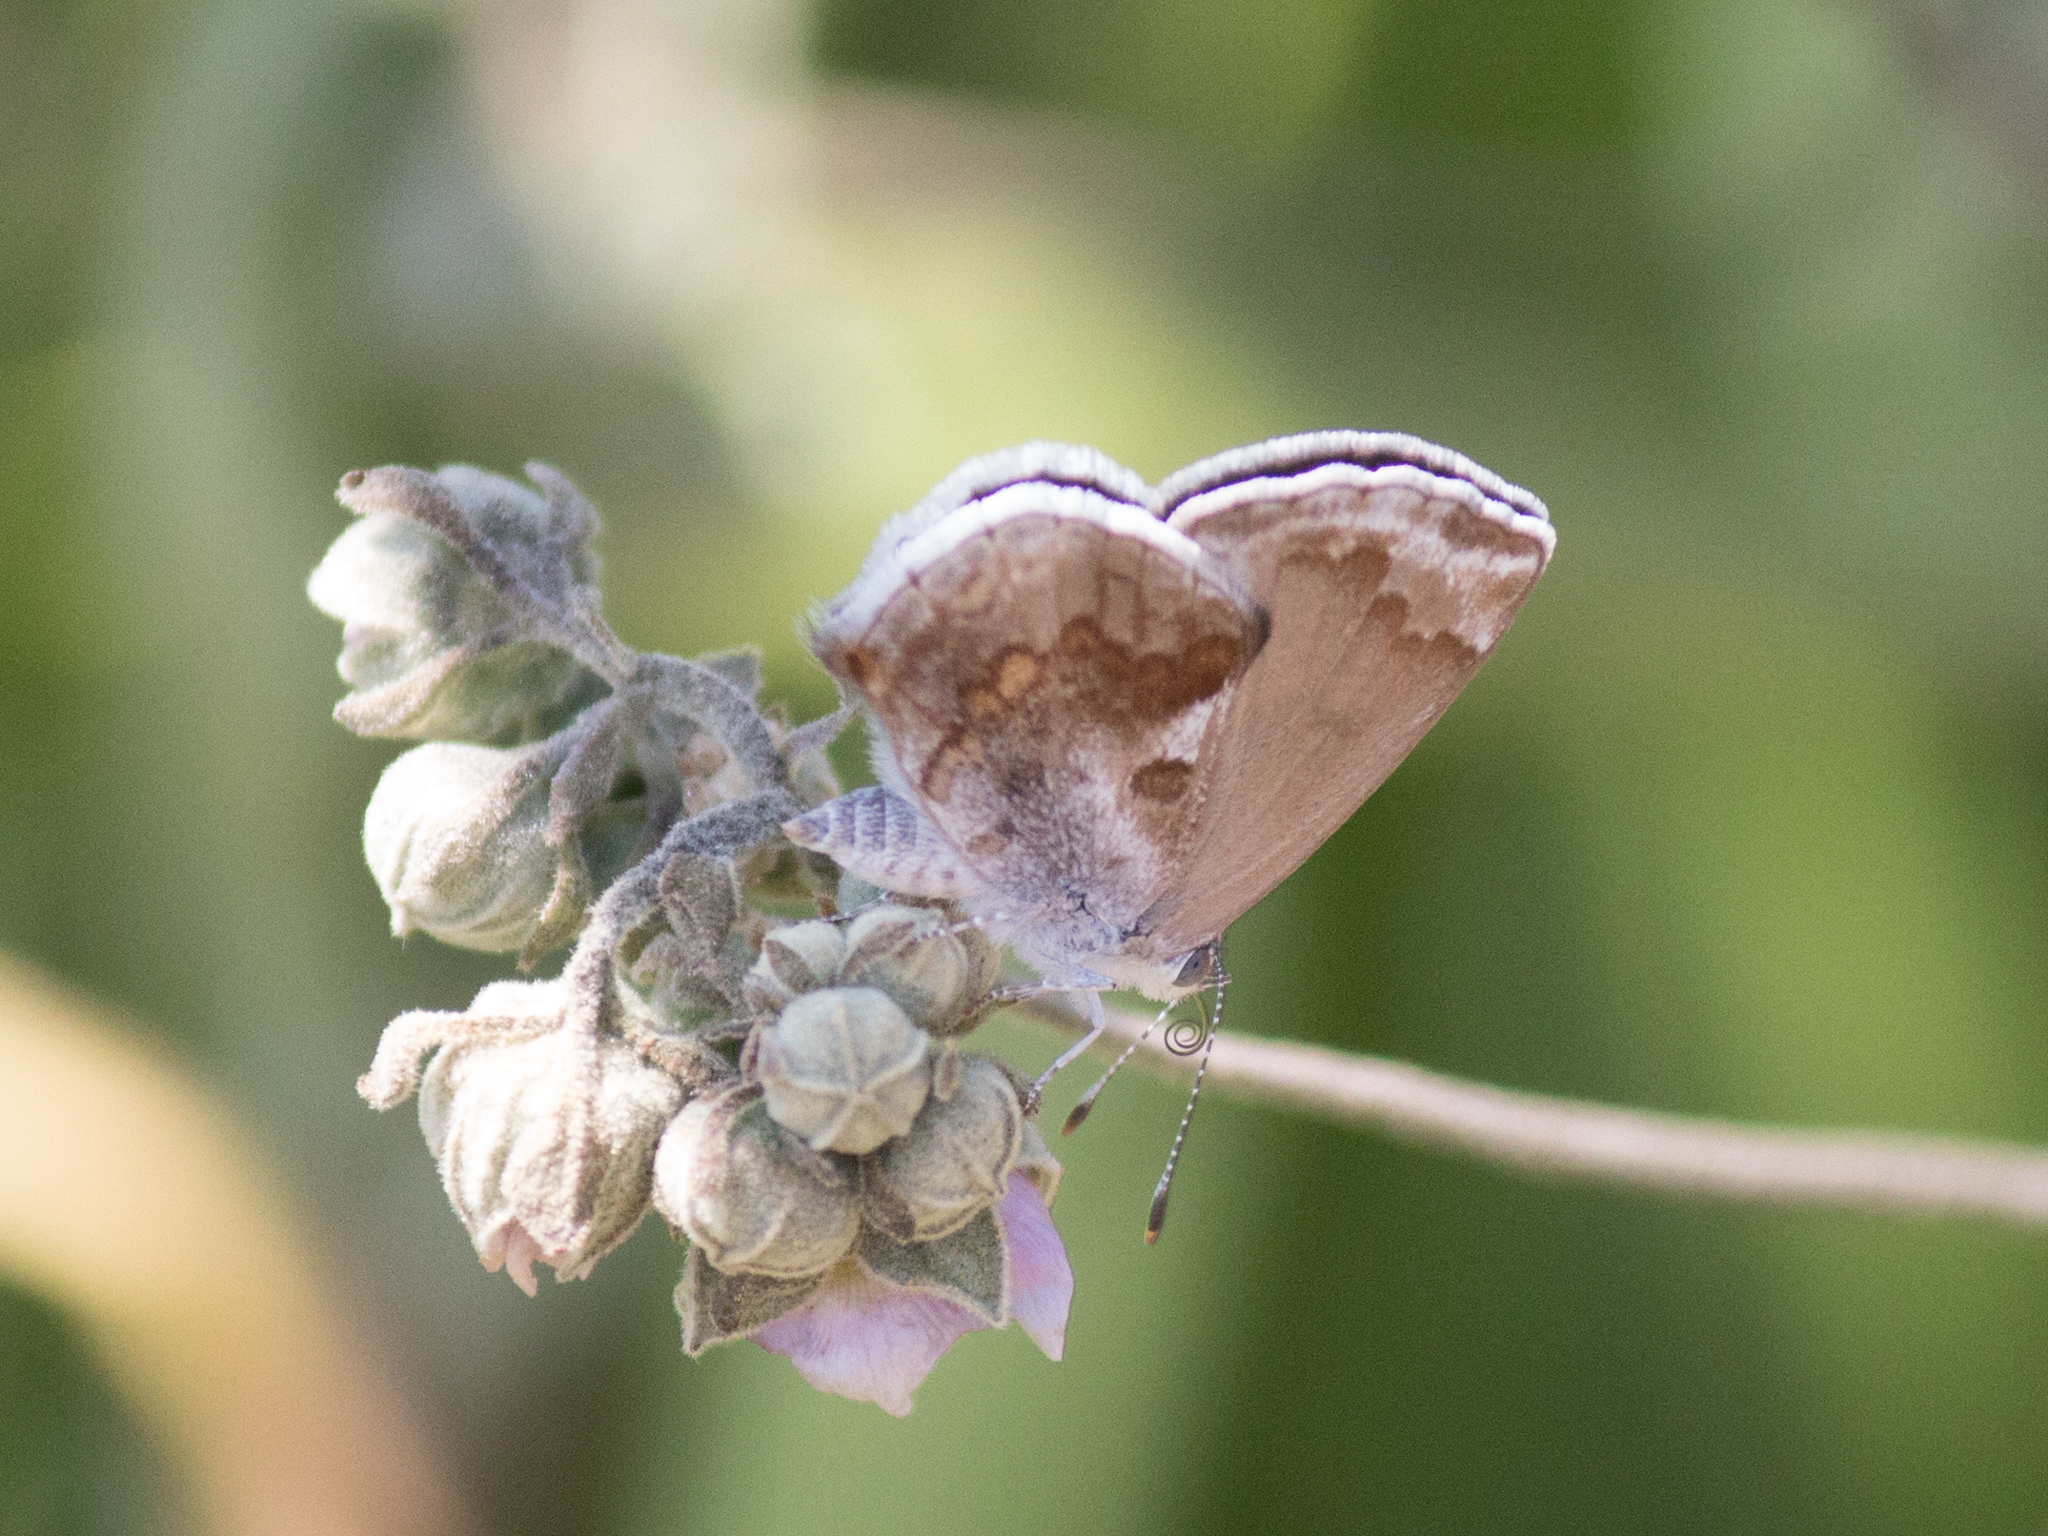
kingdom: Animalia
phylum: Arthropoda
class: Insecta
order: Lepidoptera
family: Lycaenidae
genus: Strymon
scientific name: Strymon bazochii
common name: Lantana scrub-hairstreak
